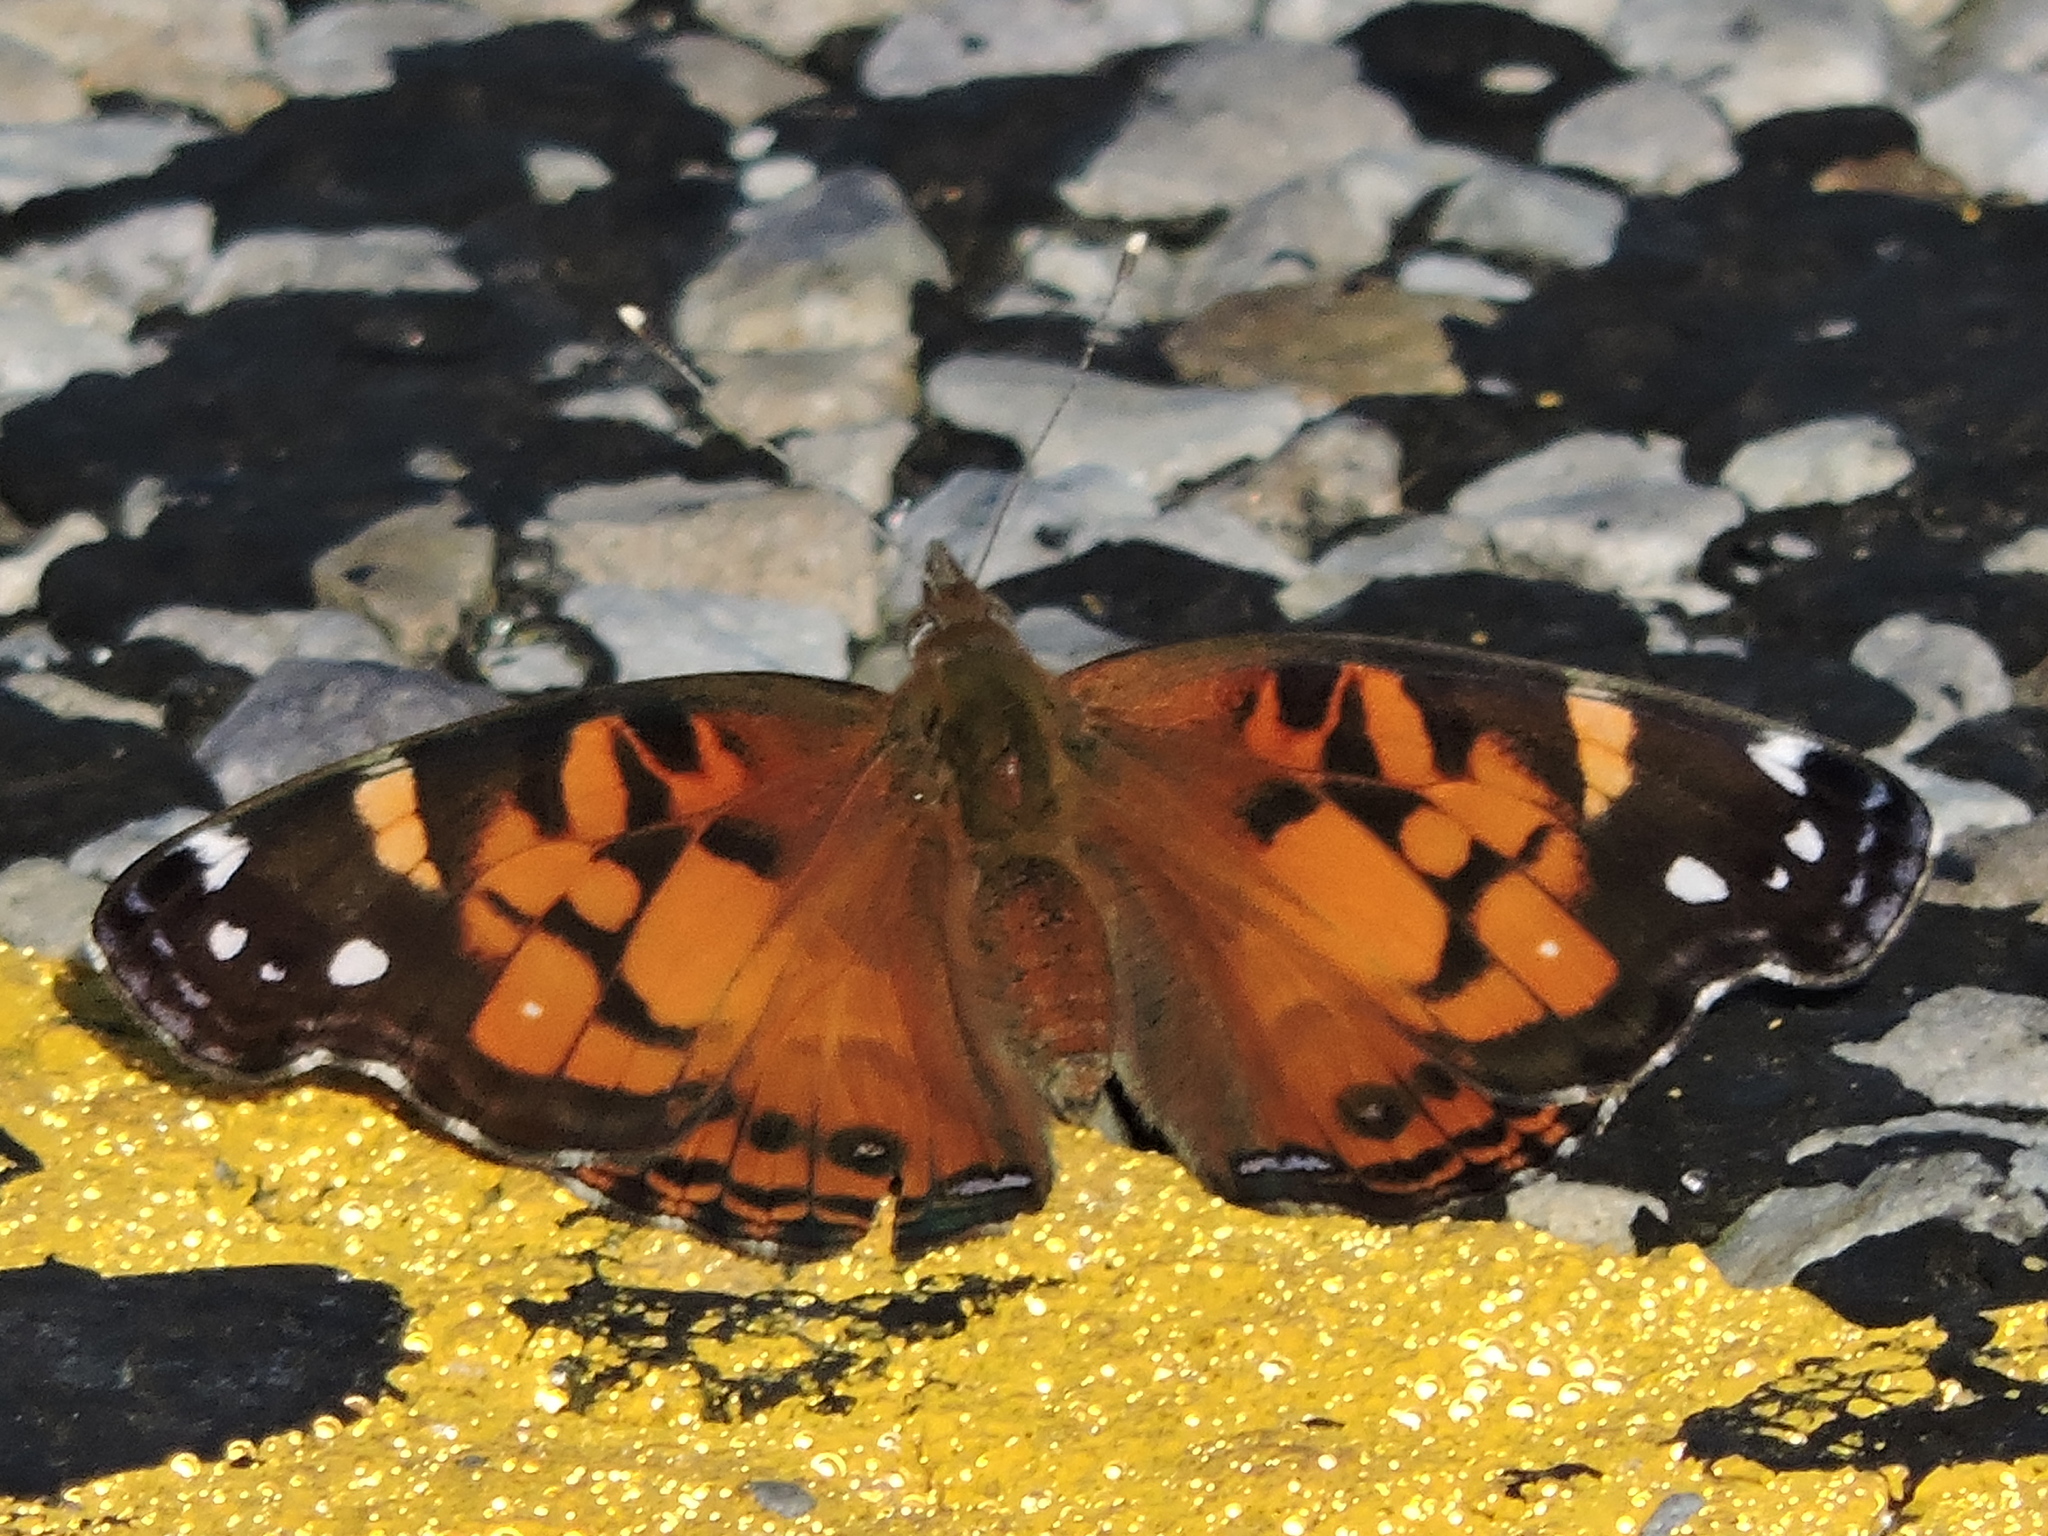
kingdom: Animalia
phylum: Arthropoda
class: Insecta
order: Lepidoptera
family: Nymphalidae
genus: Vanessa
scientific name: Vanessa virginiensis
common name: American lady
